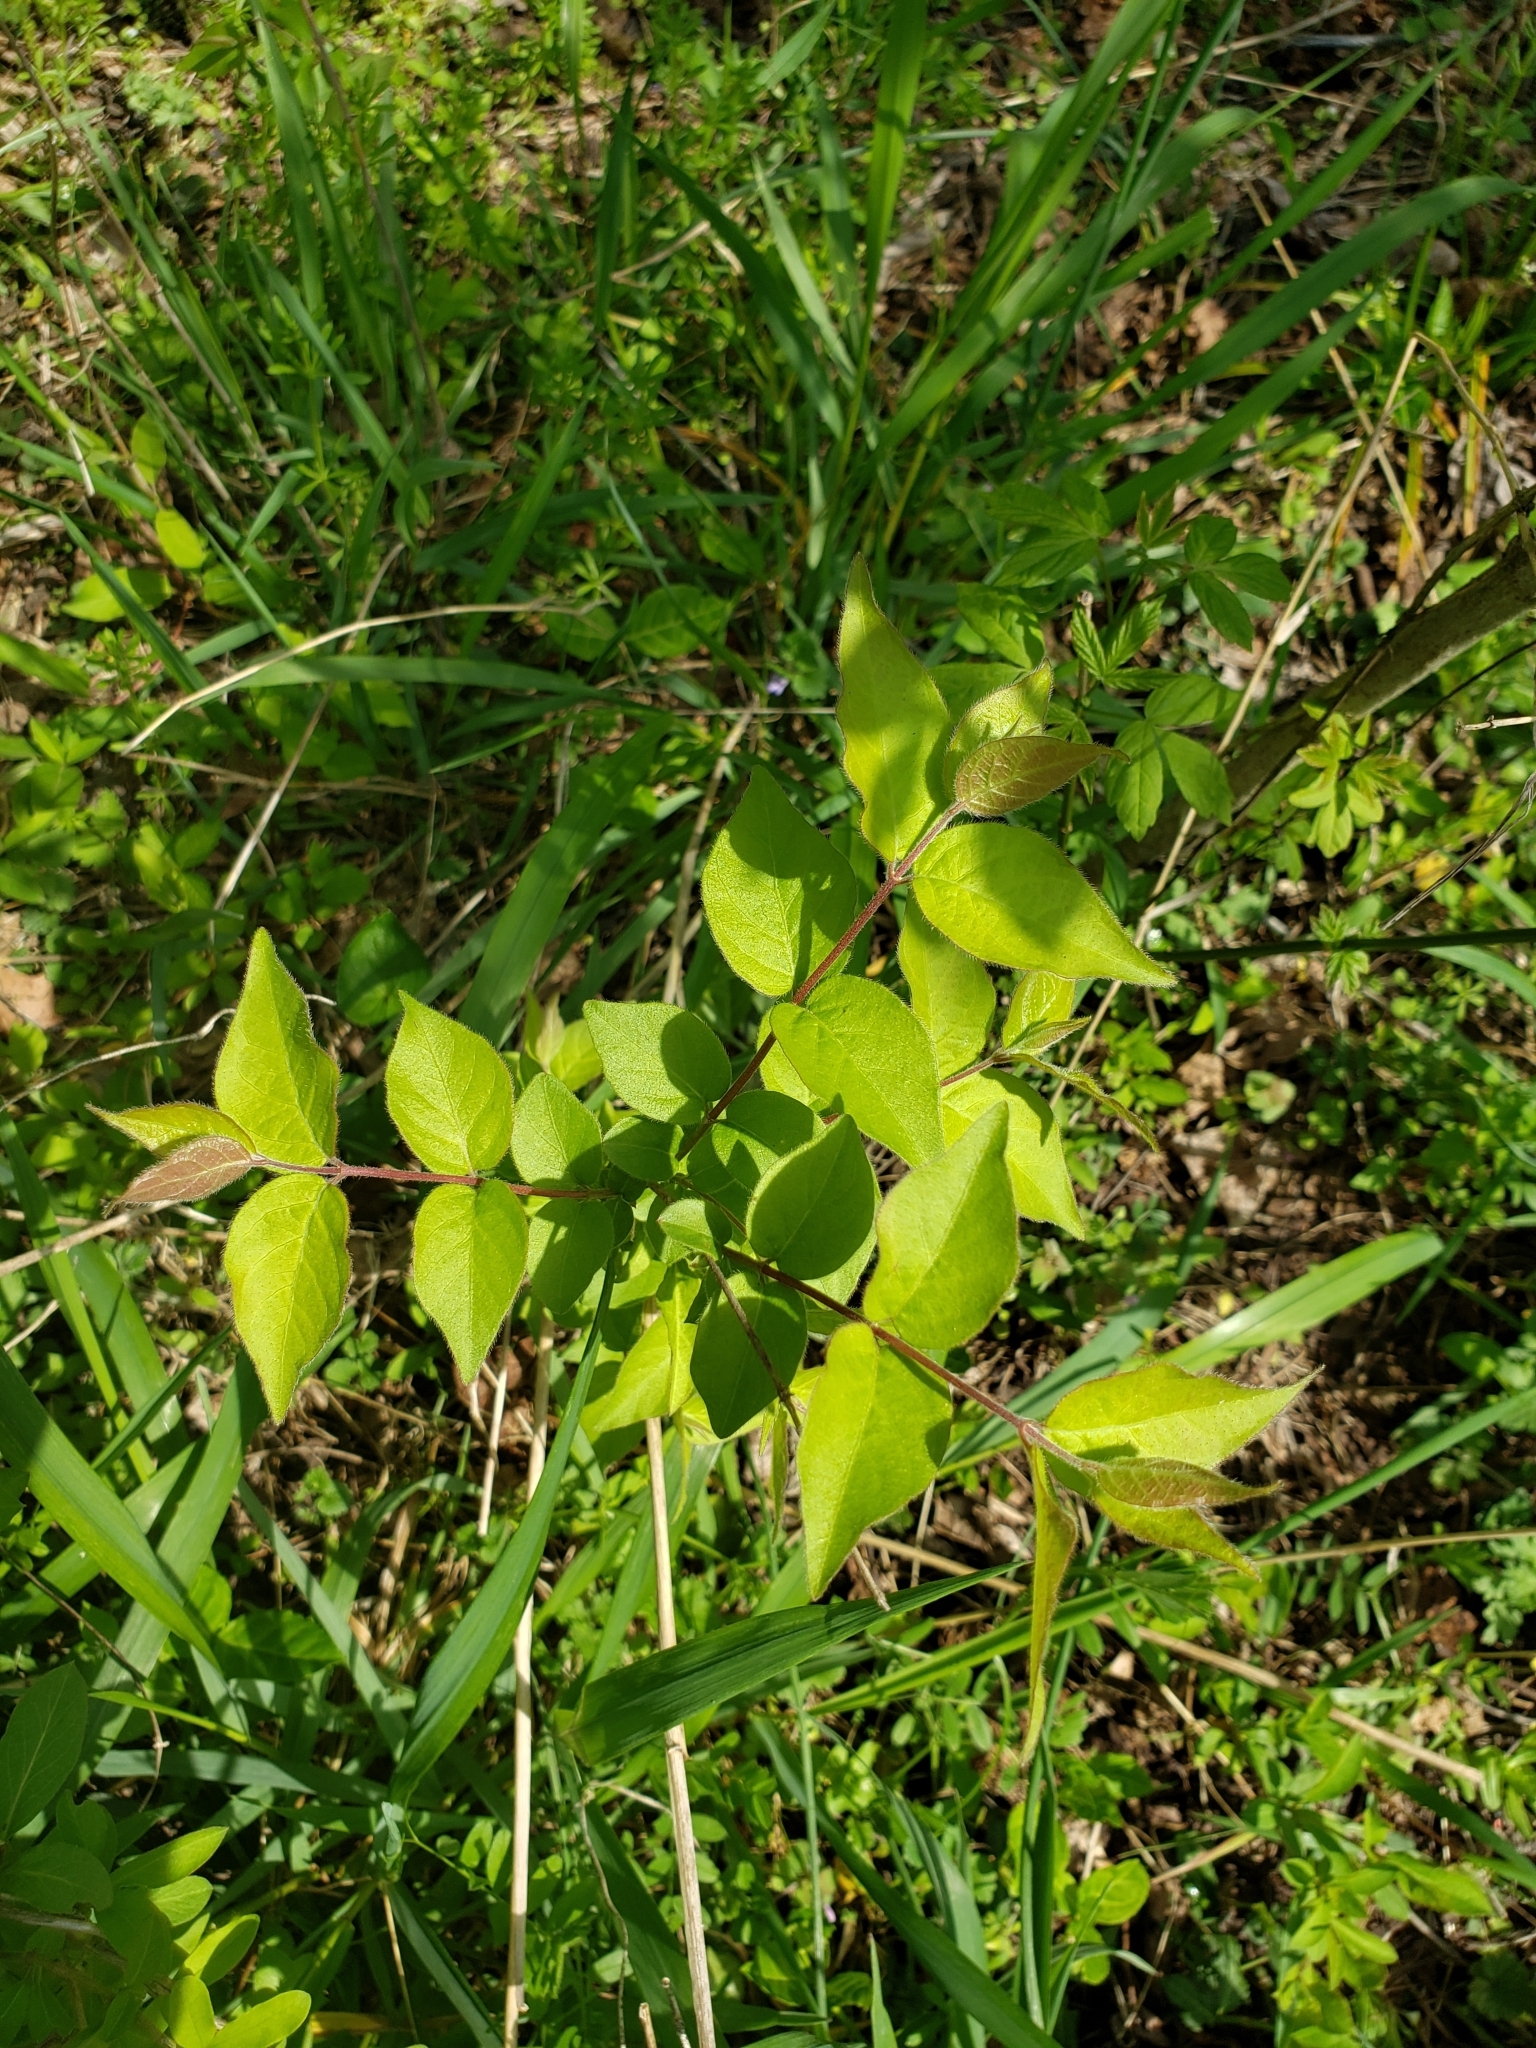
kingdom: Plantae
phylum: Tracheophyta
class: Magnoliopsida
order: Dipsacales
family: Caprifoliaceae
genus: Lonicera
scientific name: Lonicera maackii
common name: Amur honeysuckle
